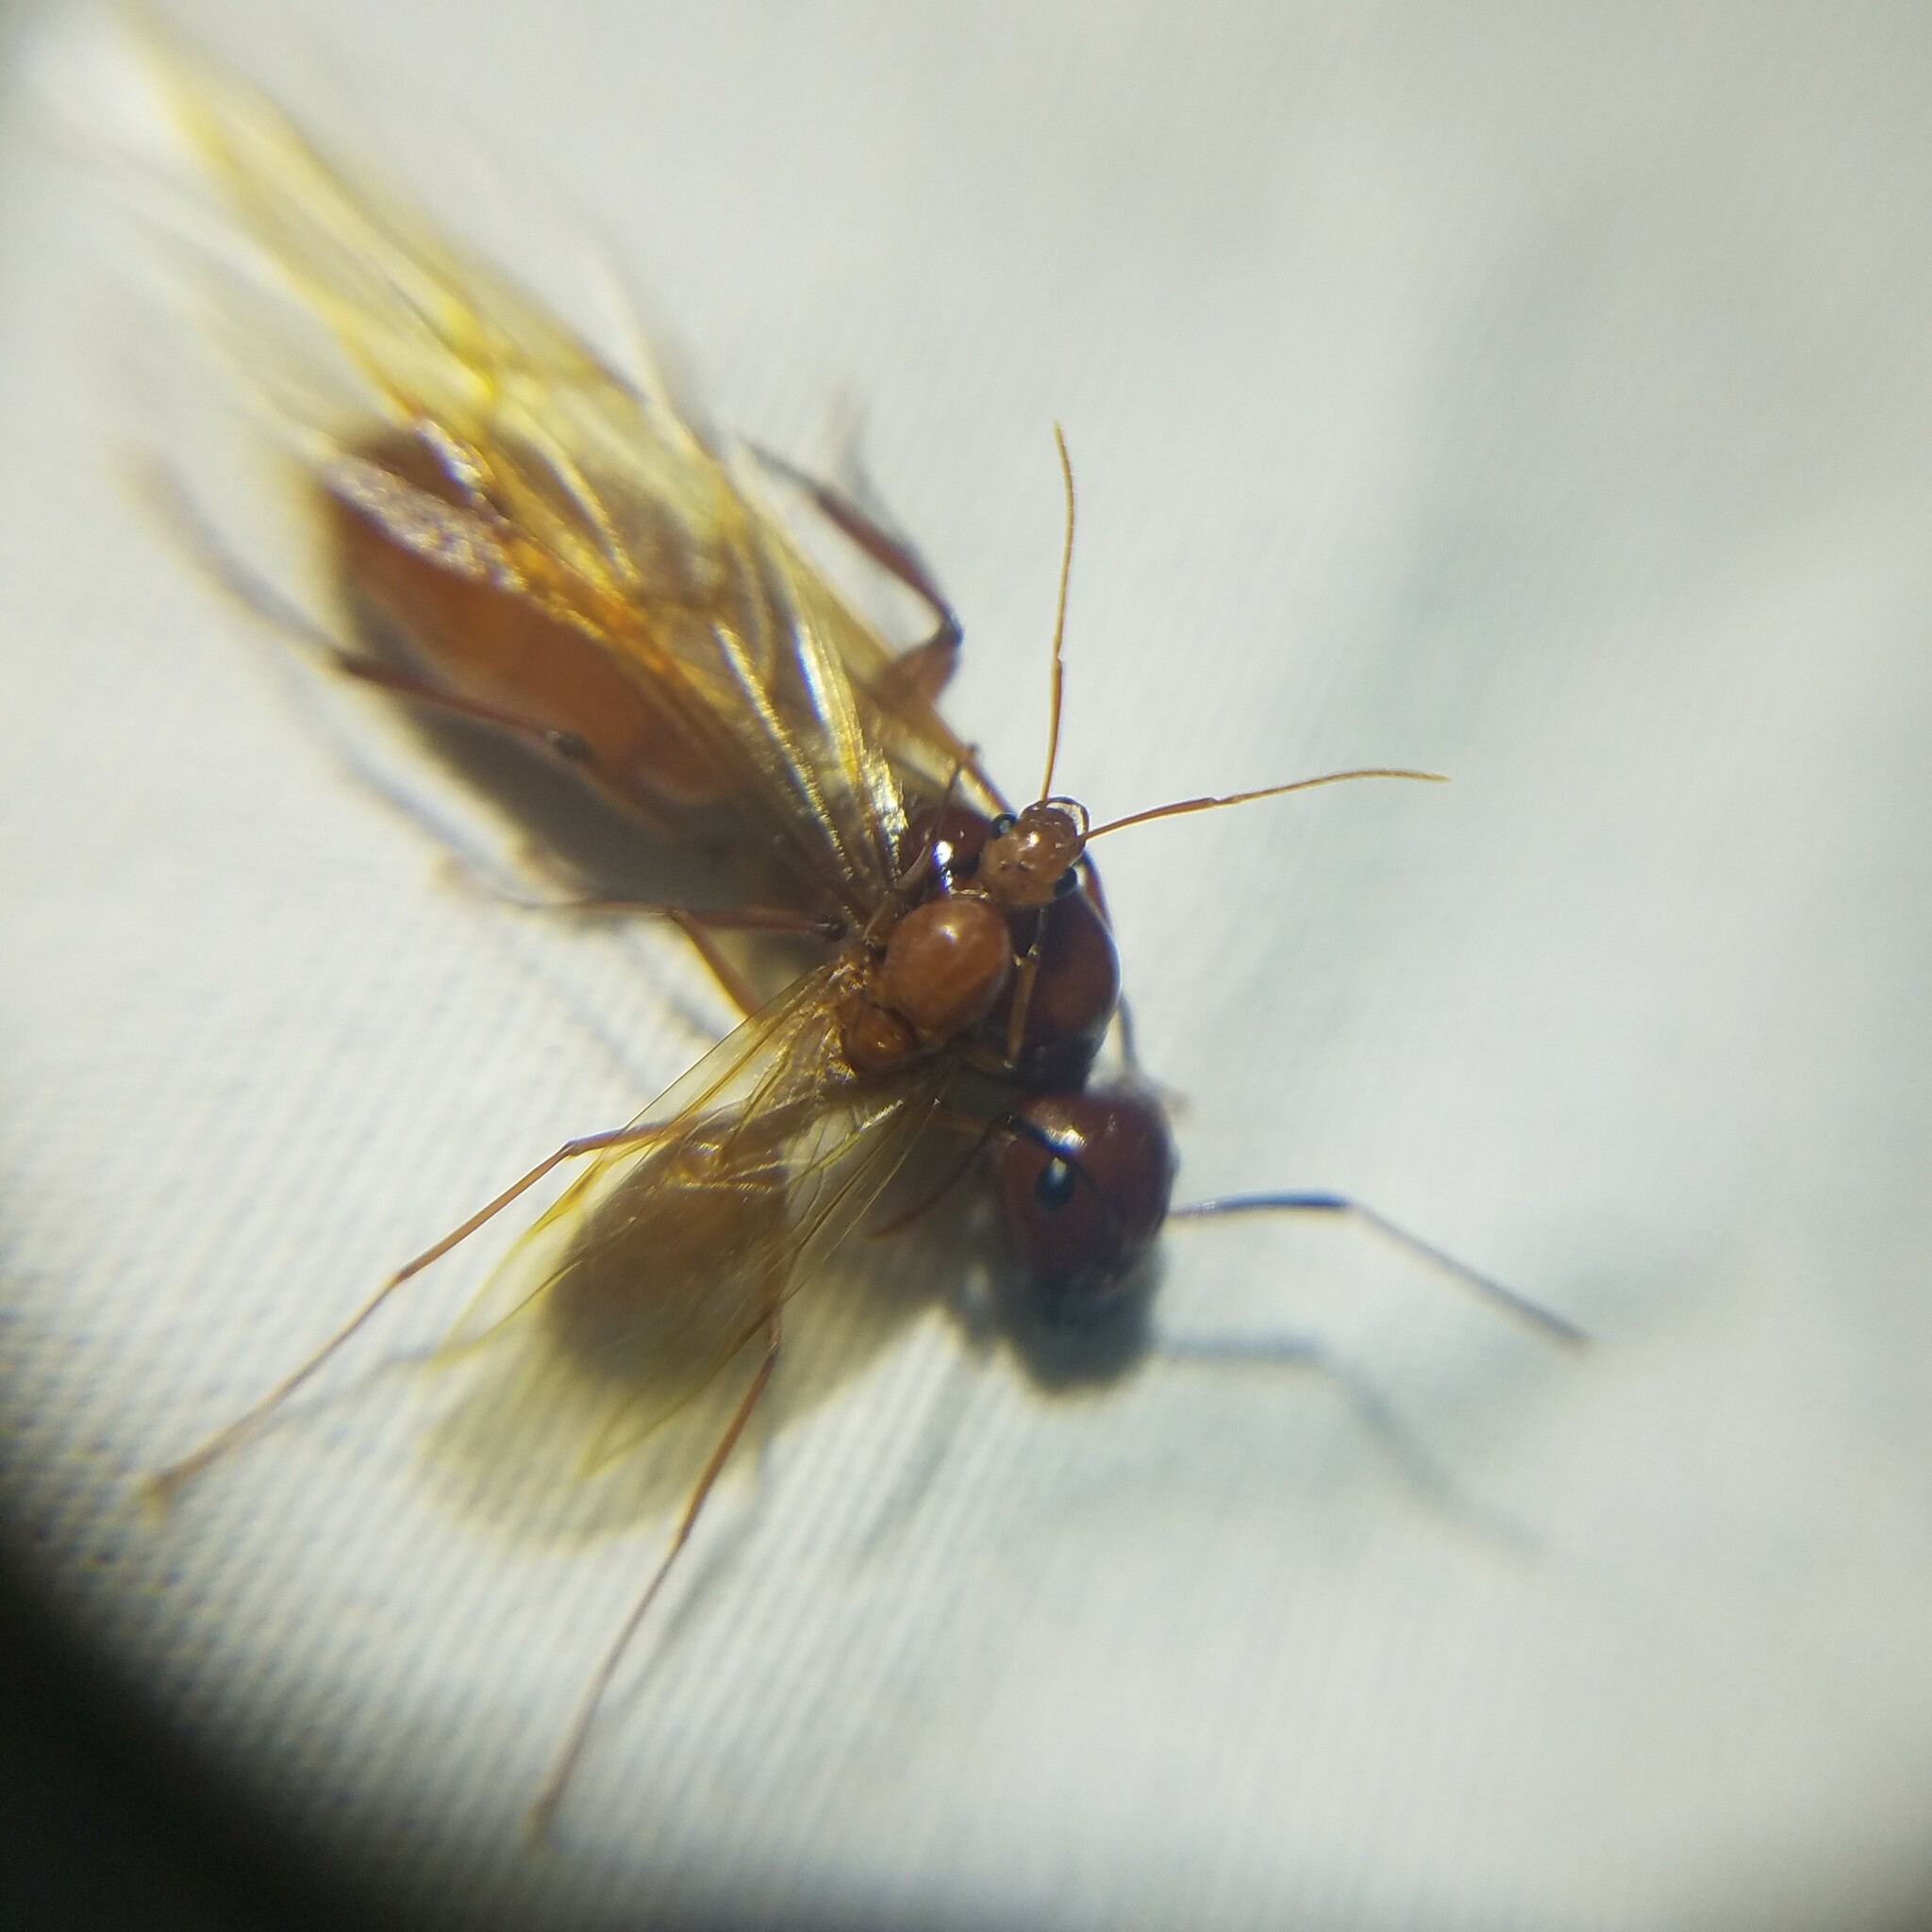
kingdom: Animalia
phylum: Arthropoda
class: Insecta
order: Hymenoptera
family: Formicidae
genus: Camponotus
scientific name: Camponotus castaneus
